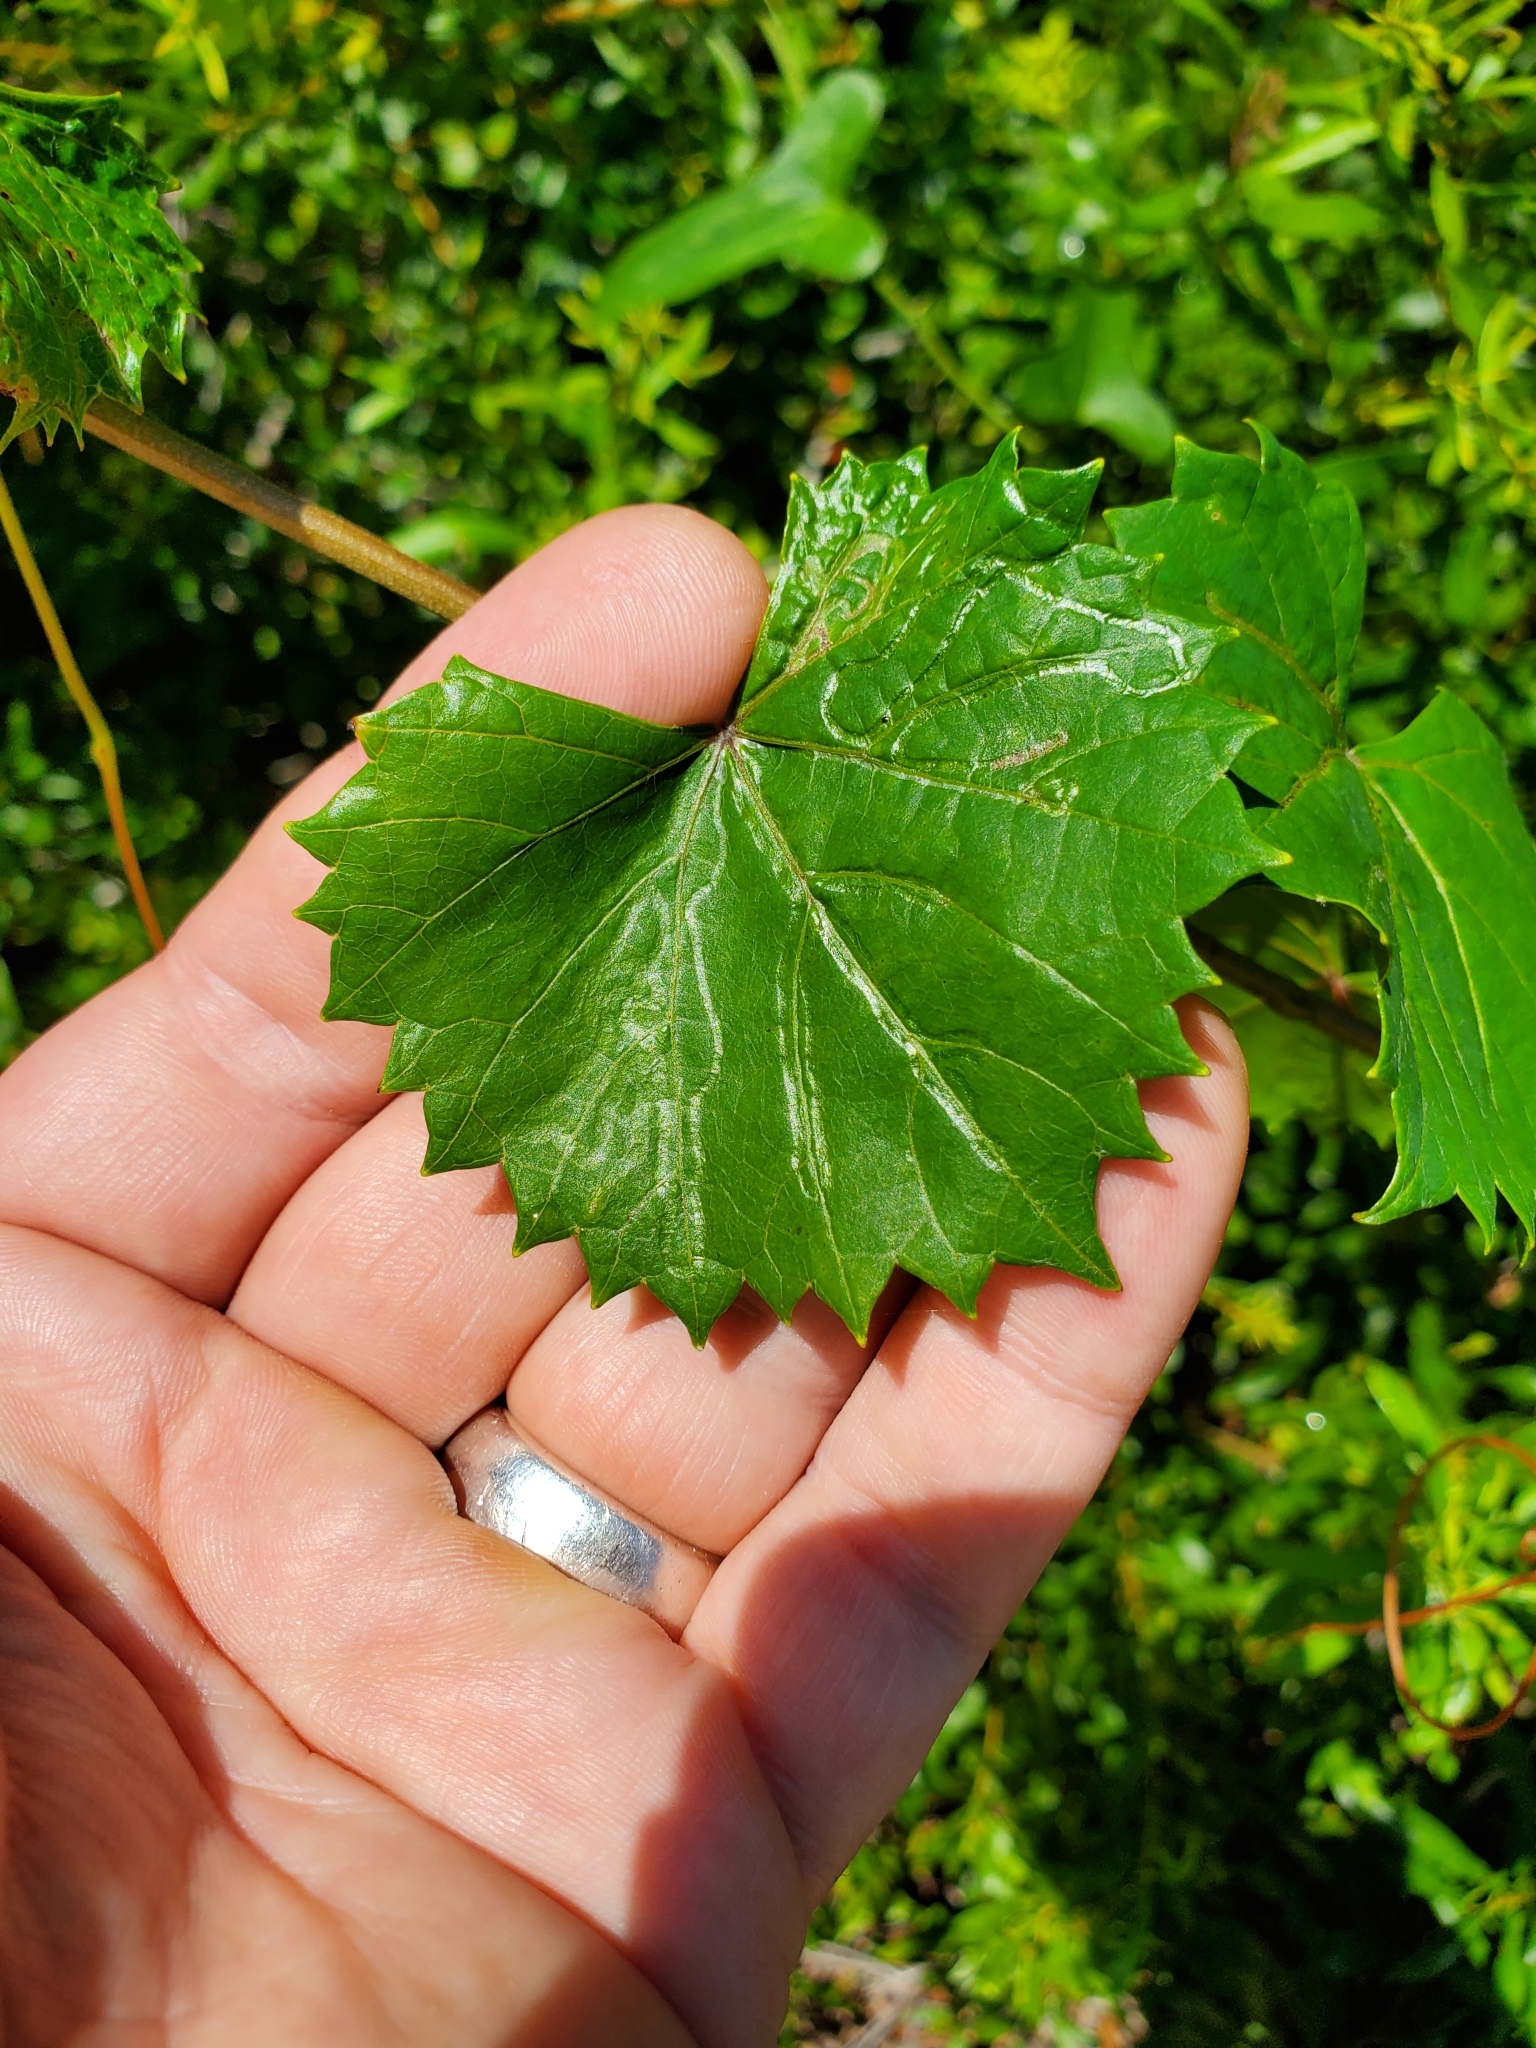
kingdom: Animalia
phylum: Arthropoda
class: Insecta
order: Lepidoptera
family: Gracillariidae
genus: Phyllocnistis
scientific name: Phyllocnistis vitegenella
